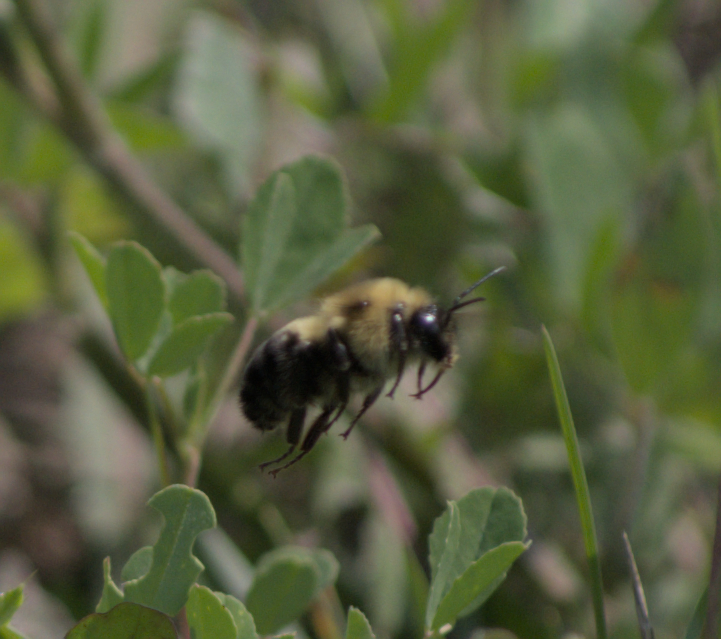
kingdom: Animalia
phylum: Arthropoda
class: Insecta
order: Hymenoptera
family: Apidae
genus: Bombus
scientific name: Bombus bimaculatus
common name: Two-spotted bumble bee
